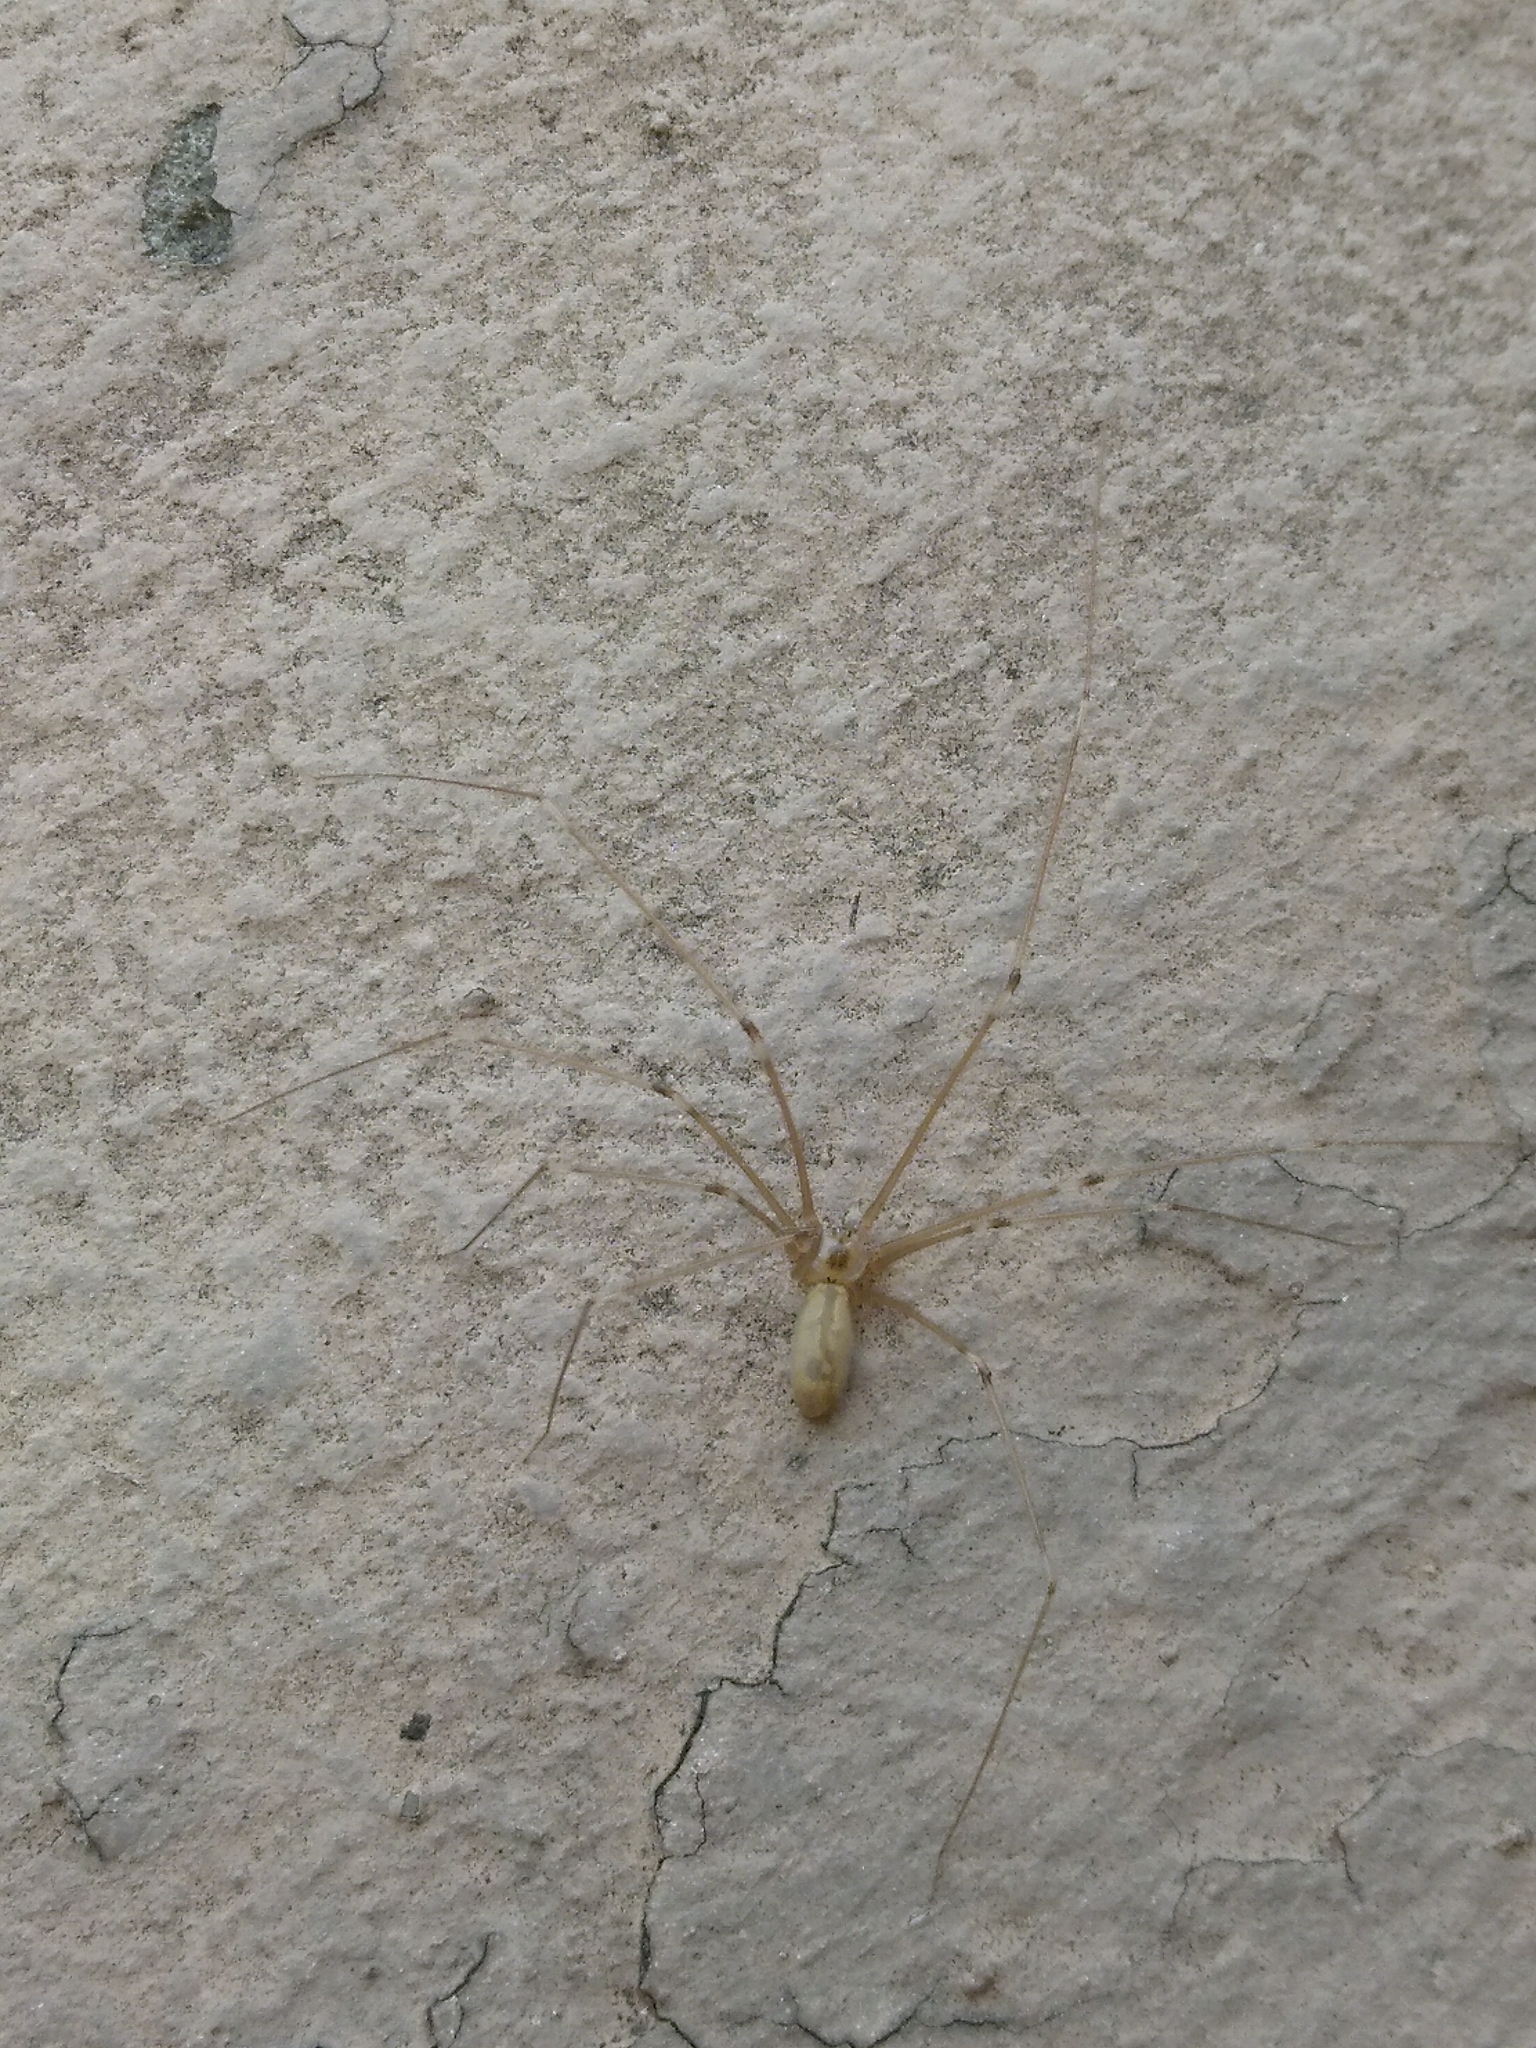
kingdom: Animalia
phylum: Arthropoda
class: Arachnida
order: Araneae
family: Pholcidae
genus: Pholcus
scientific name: Pholcus
